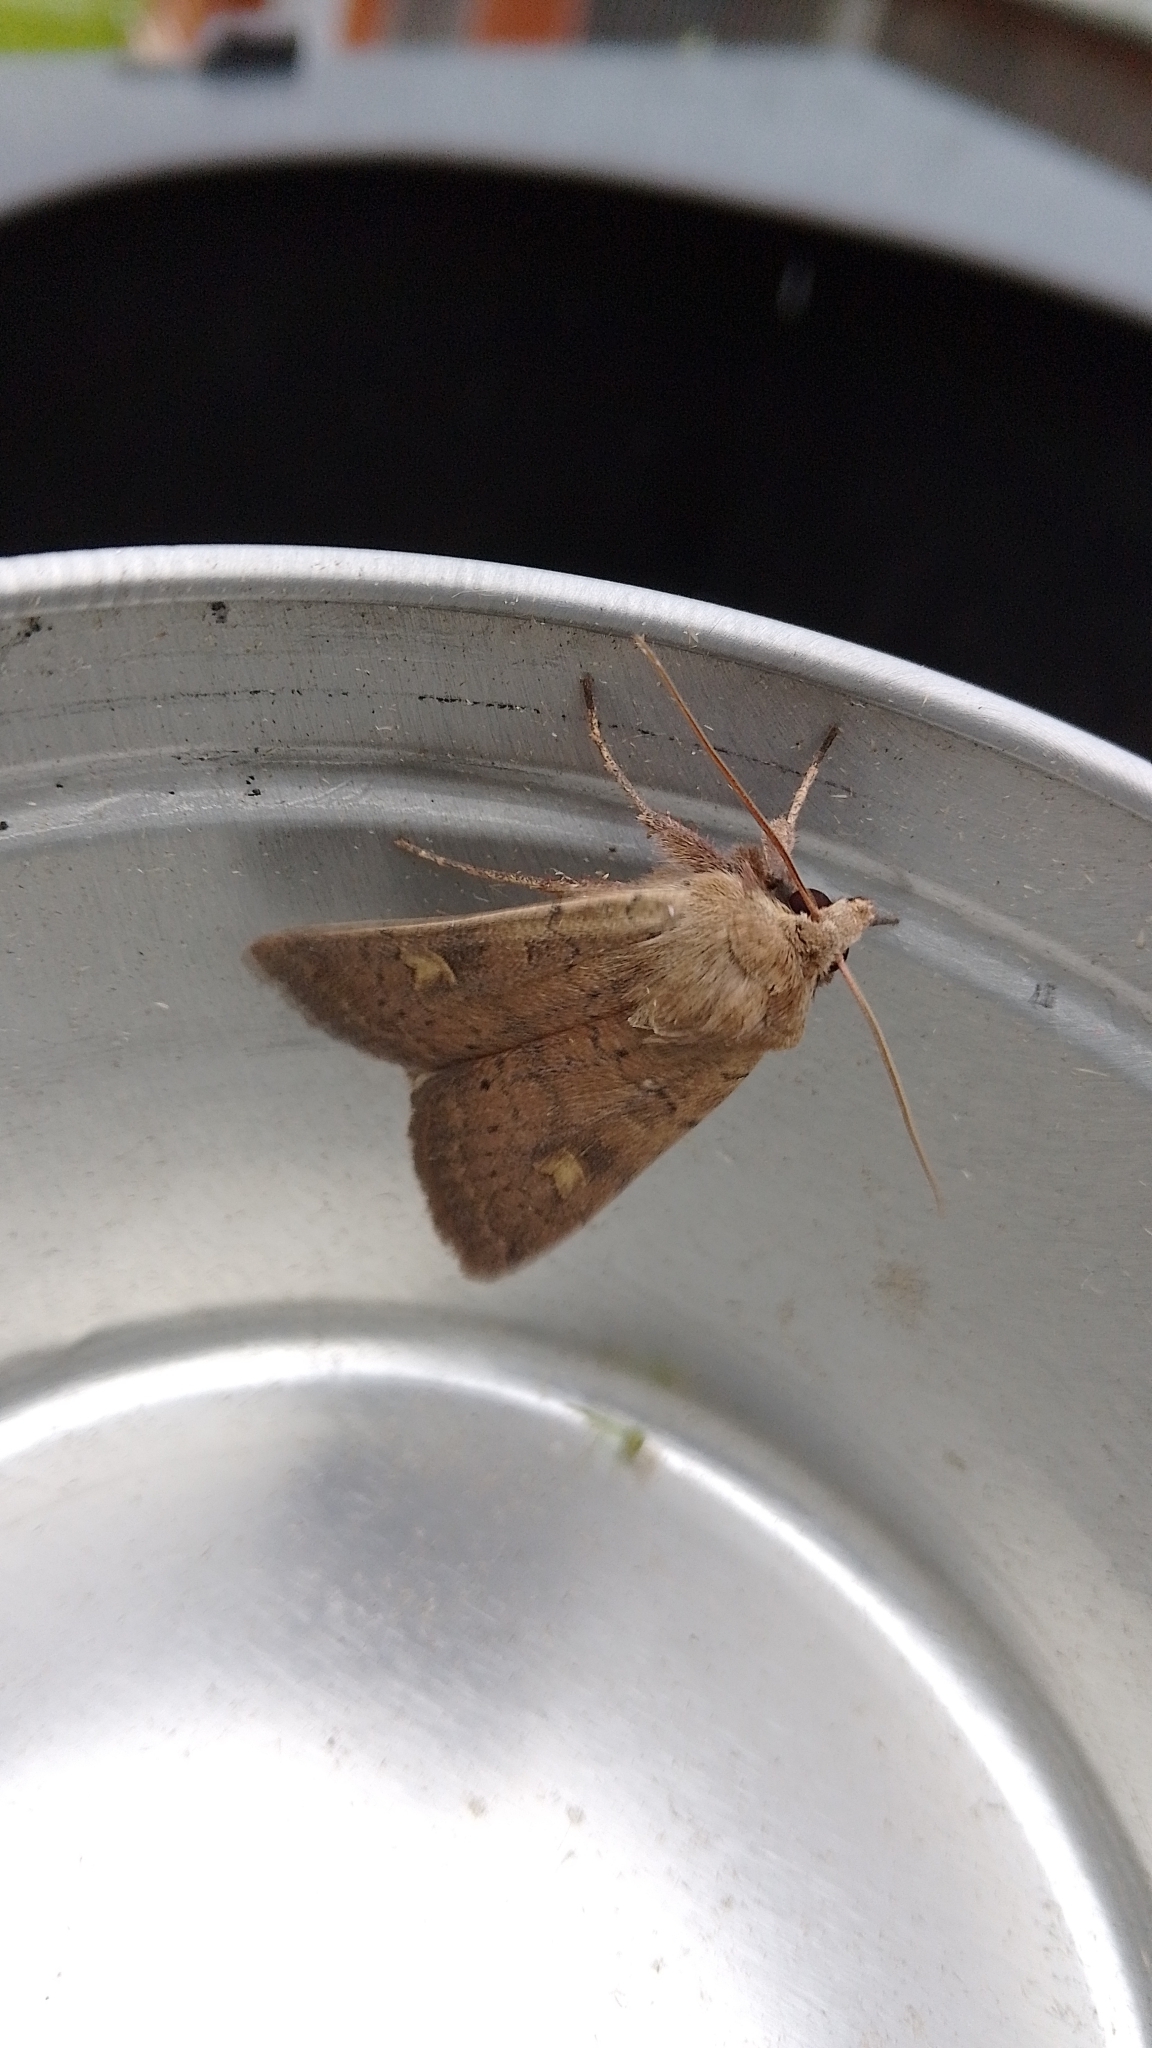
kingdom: Animalia
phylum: Arthropoda
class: Insecta
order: Lepidoptera
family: Noctuidae
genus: Xestia
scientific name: Xestia xanthographa
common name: Square-spot rustic
